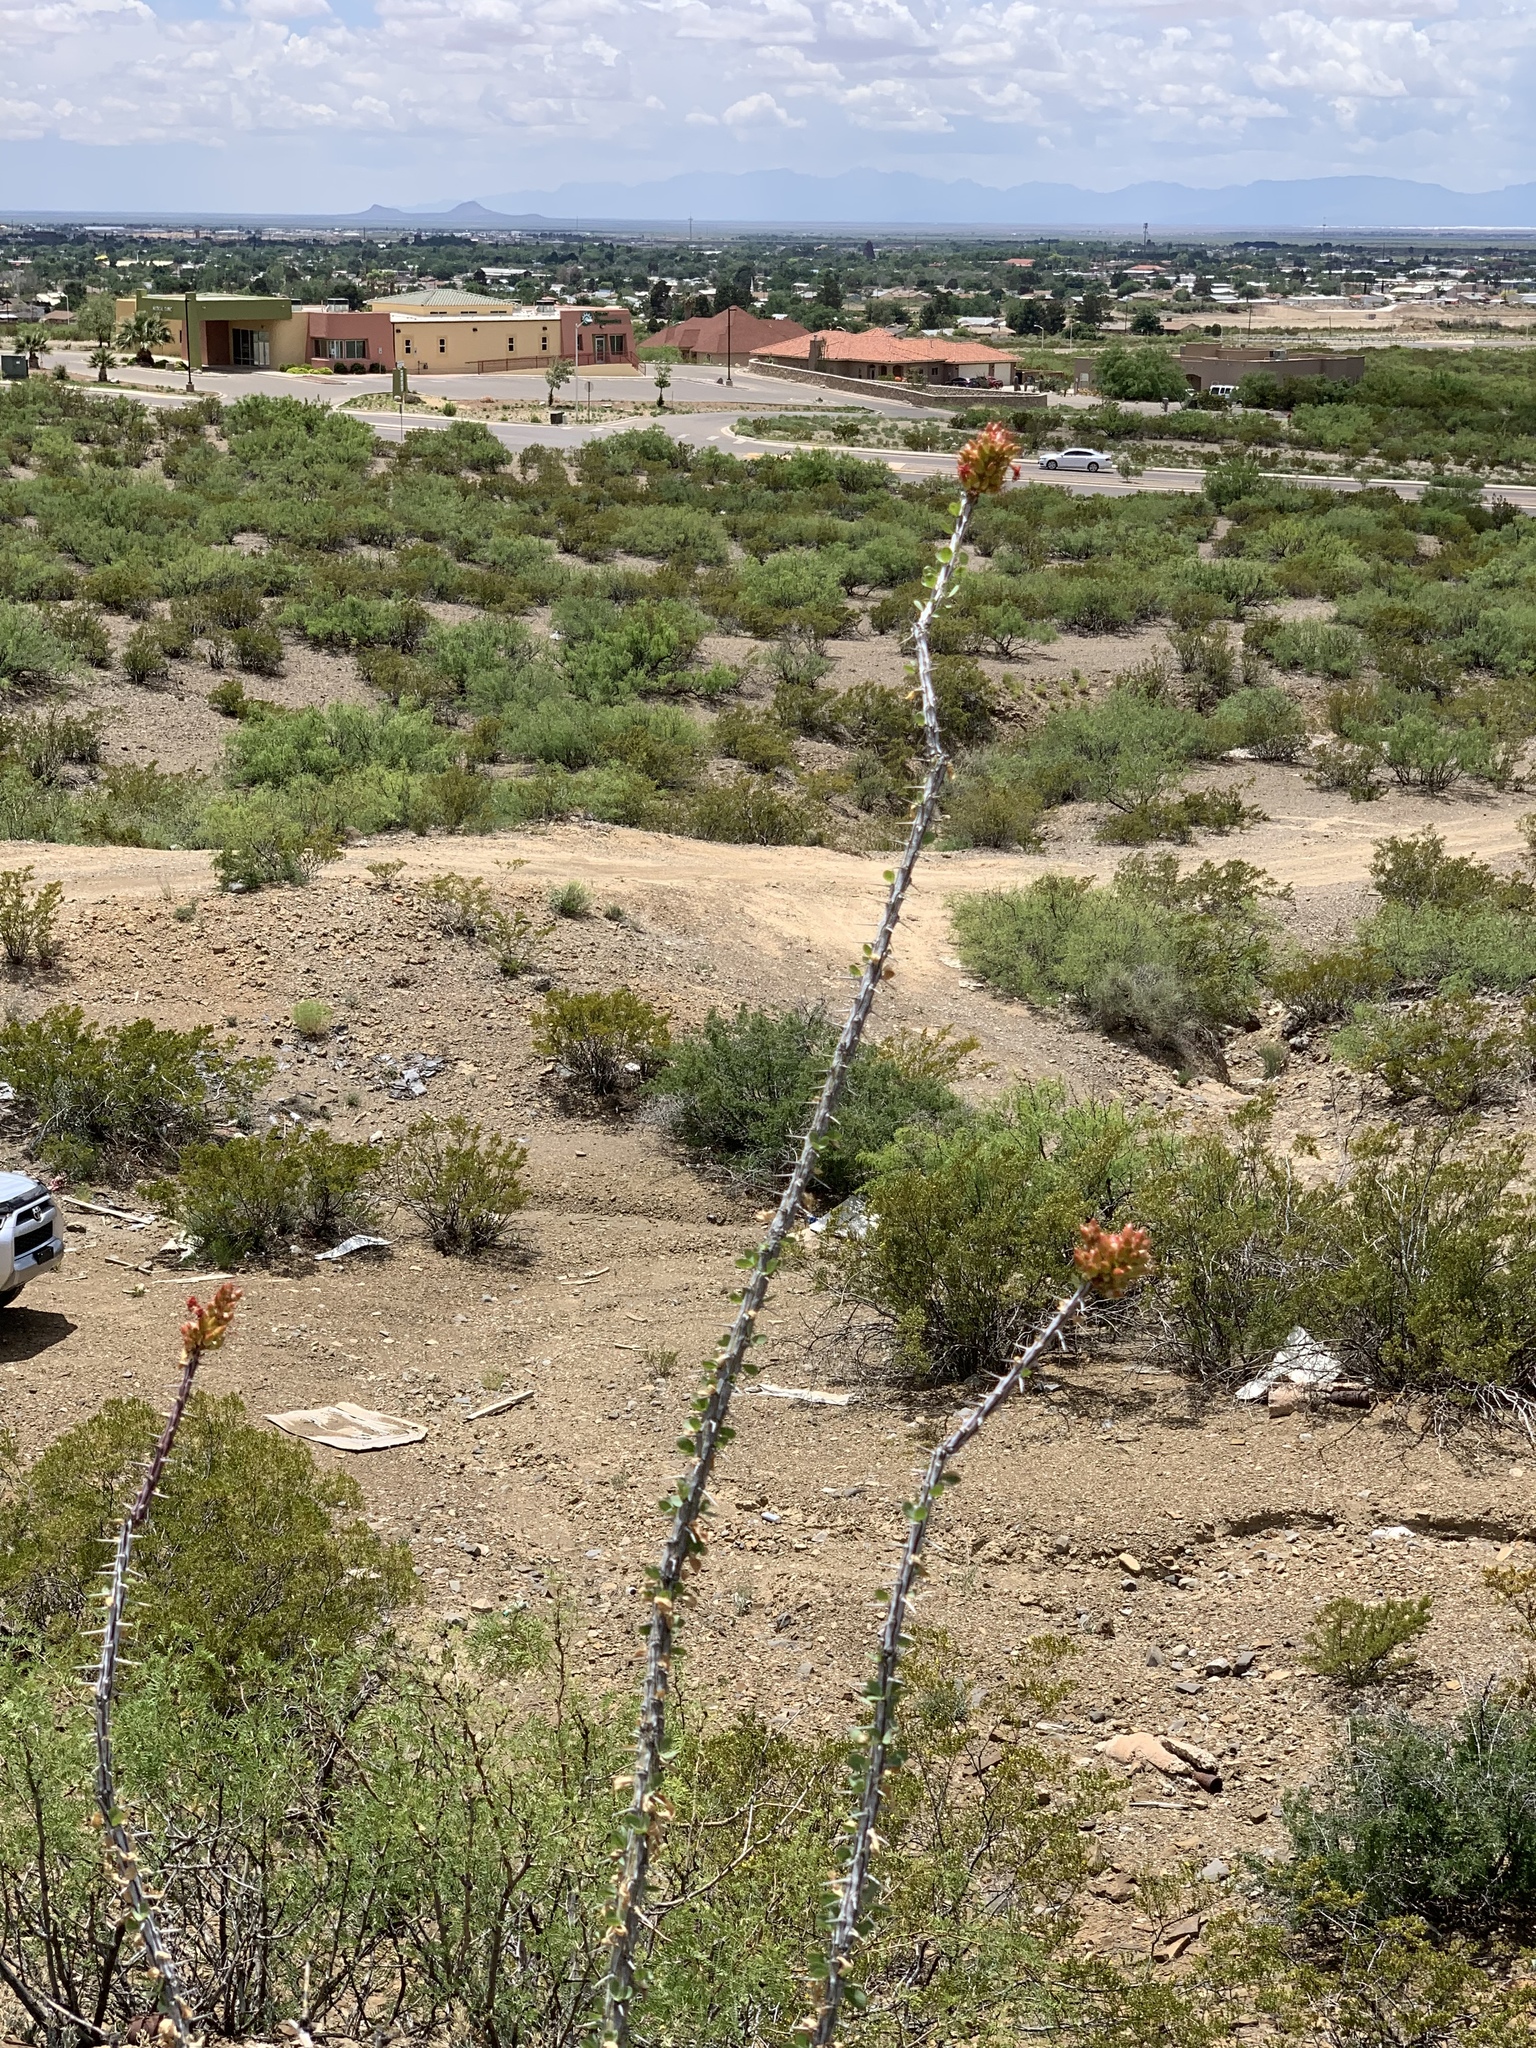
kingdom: Plantae
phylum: Tracheophyta
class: Magnoliopsida
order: Ericales
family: Fouquieriaceae
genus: Fouquieria
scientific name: Fouquieria splendens
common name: Vine-cactus
